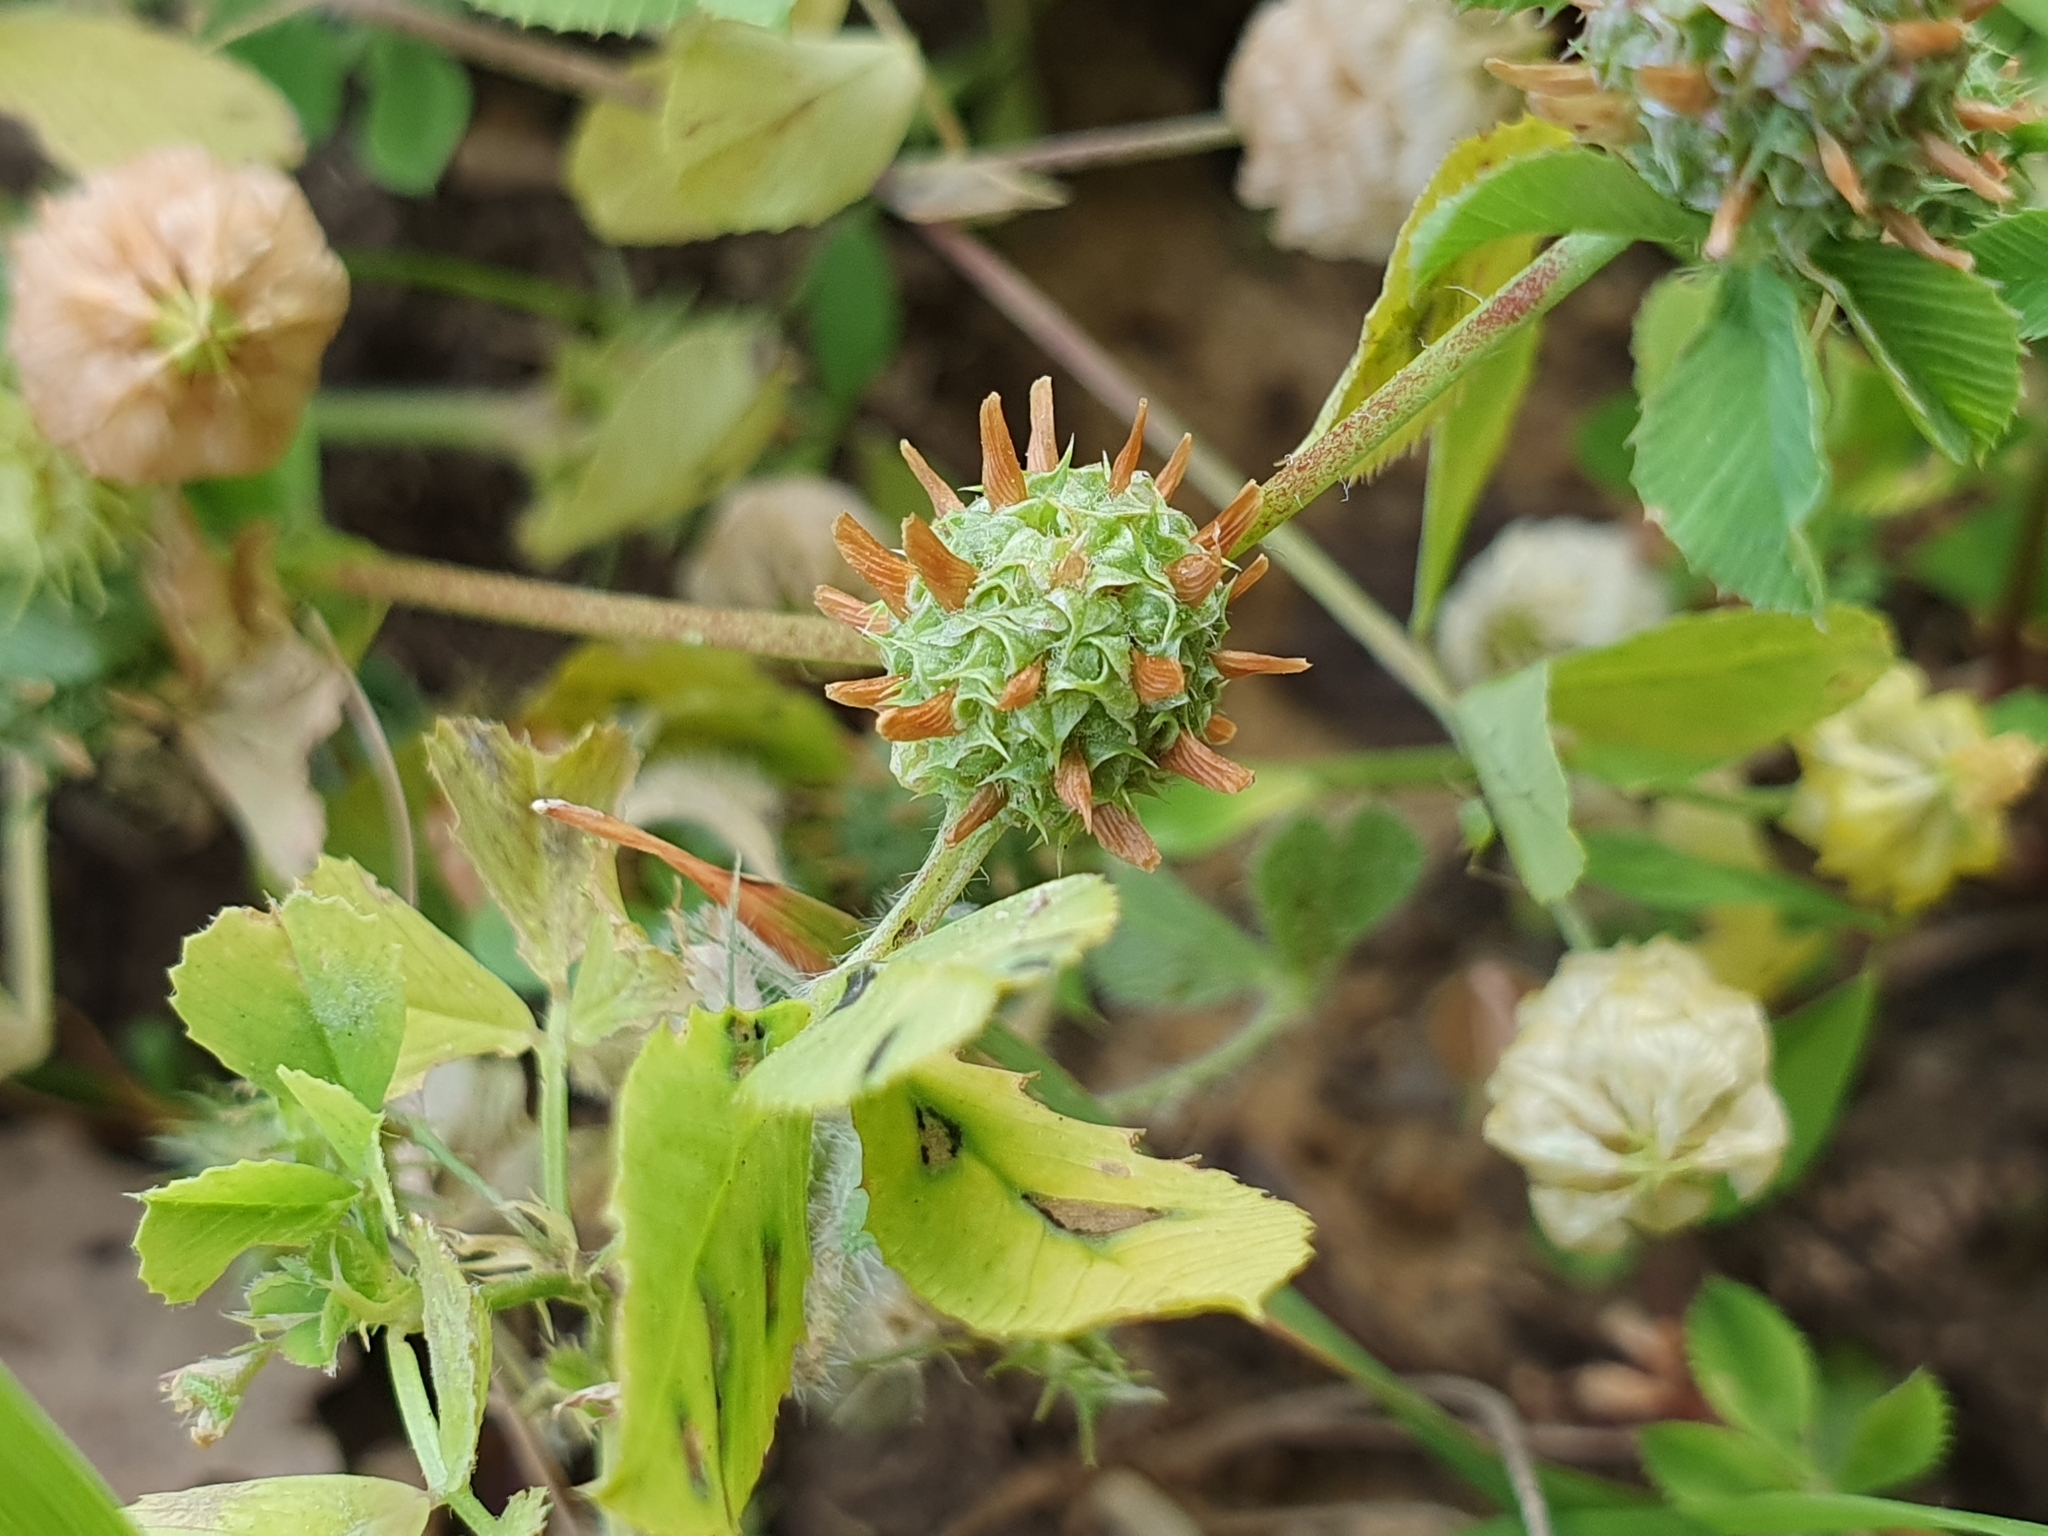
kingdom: Plantae
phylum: Tracheophyta
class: Magnoliopsida
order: Fabales
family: Fabaceae
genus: Trifolium
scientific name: Trifolium glomeratum
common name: Clustered clover
